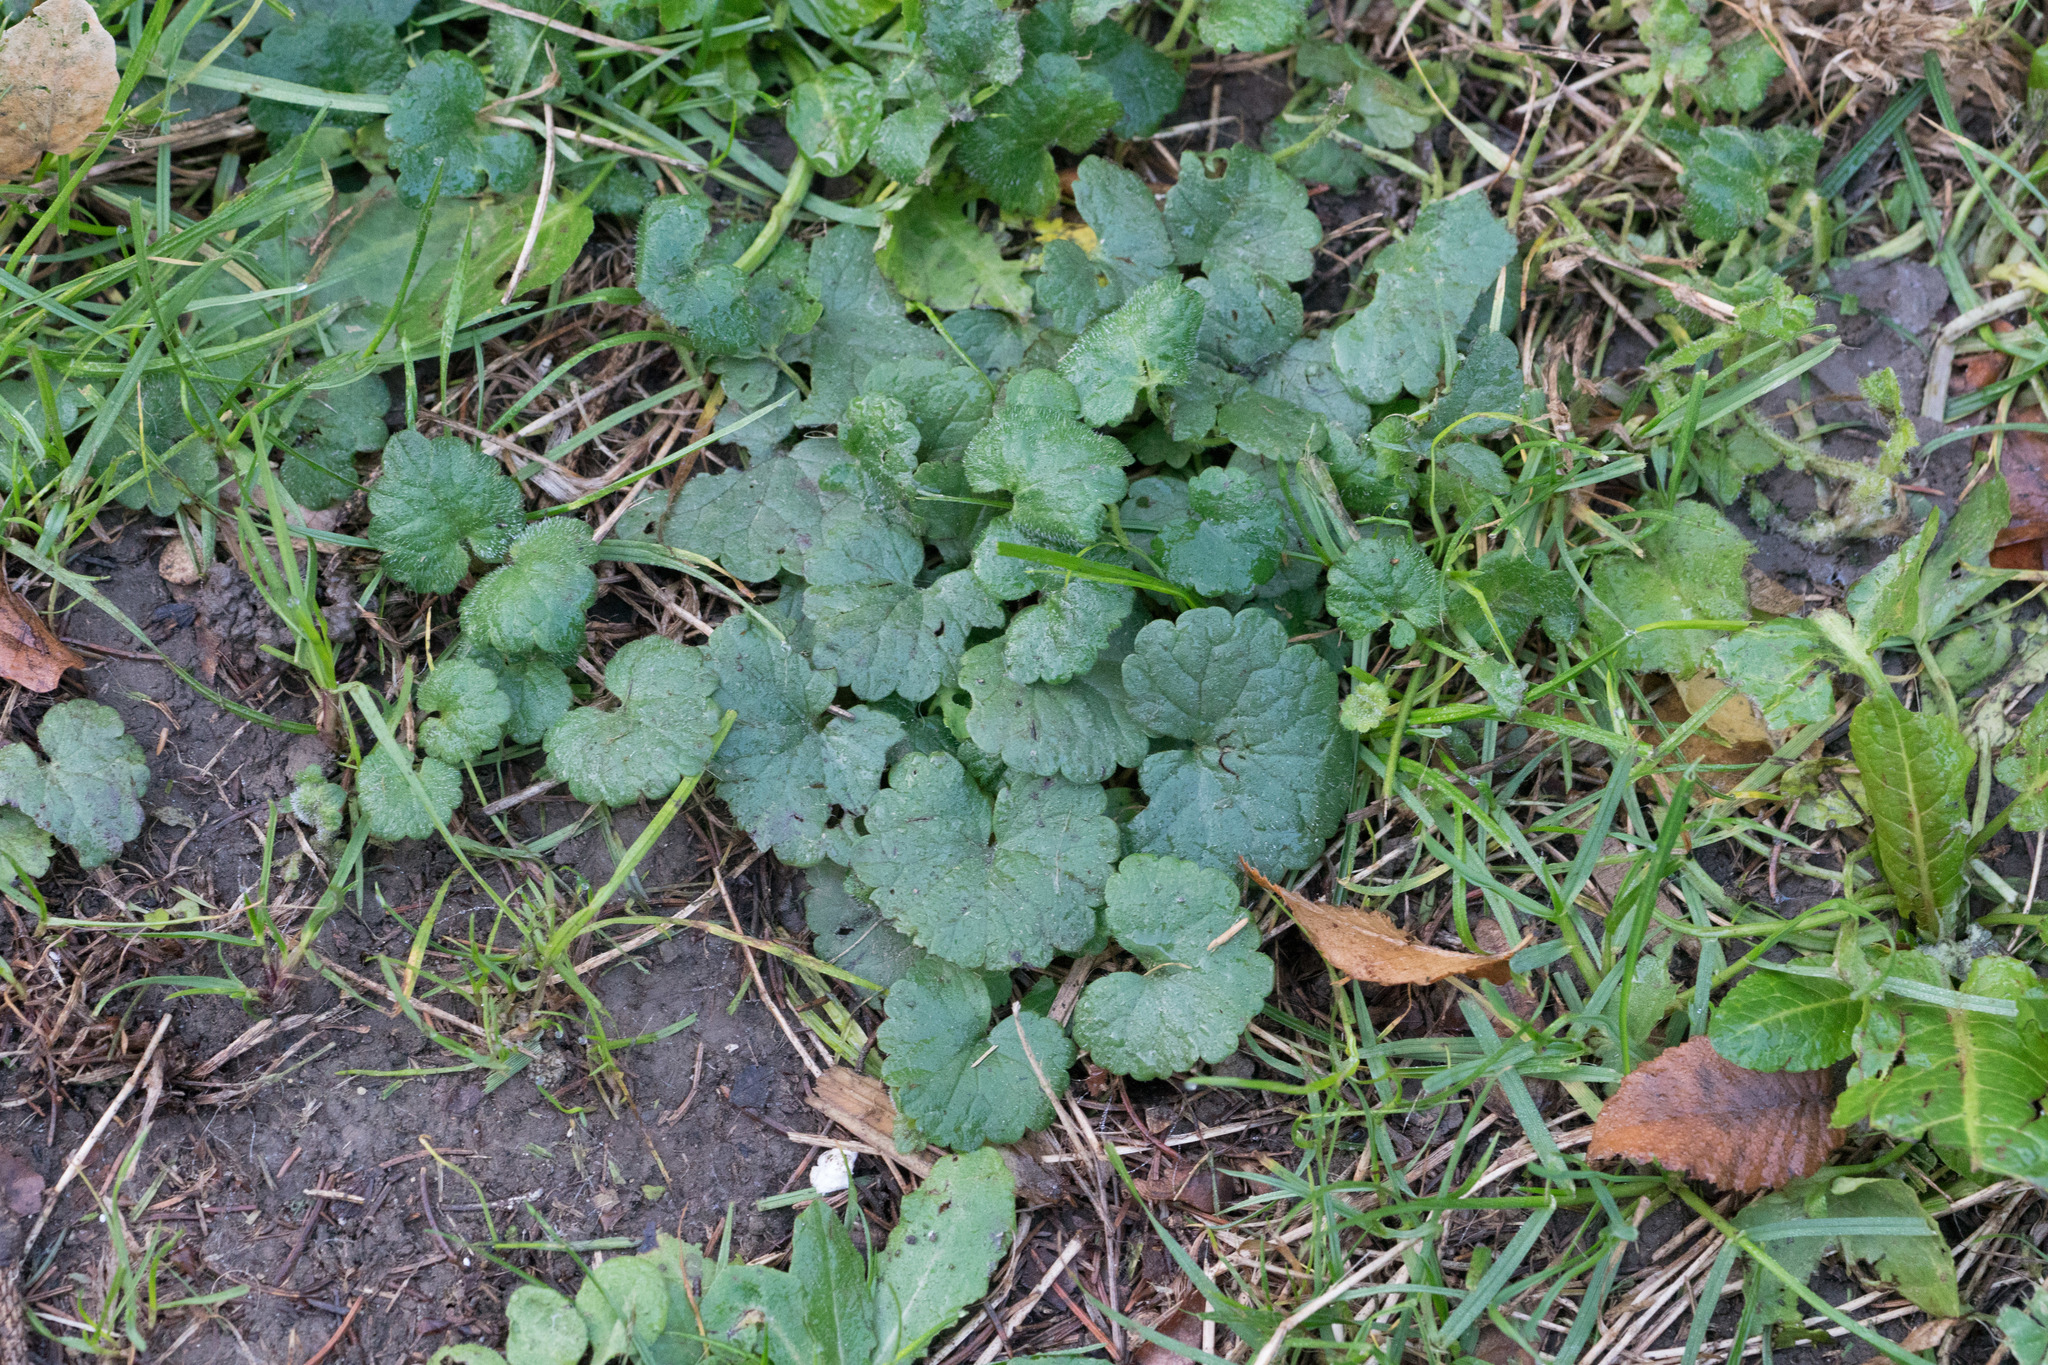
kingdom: Plantae
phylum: Tracheophyta
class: Magnoliopsida
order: Lamiales
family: Lamiaceae
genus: Glechoma
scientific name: Glechoma hederacea
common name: Ground ivy
